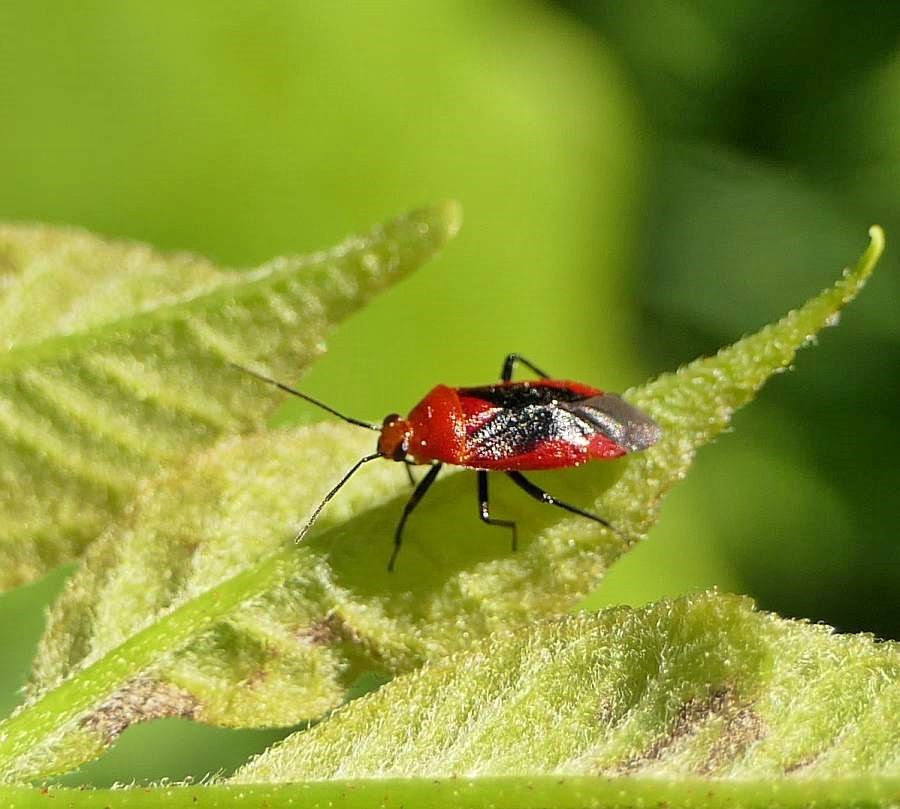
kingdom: Animalia
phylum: Arthropoda
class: Insecta
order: Hemiptera
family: Miridae
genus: Tropidosteptes
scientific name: Tropidosteptes cardinalis
